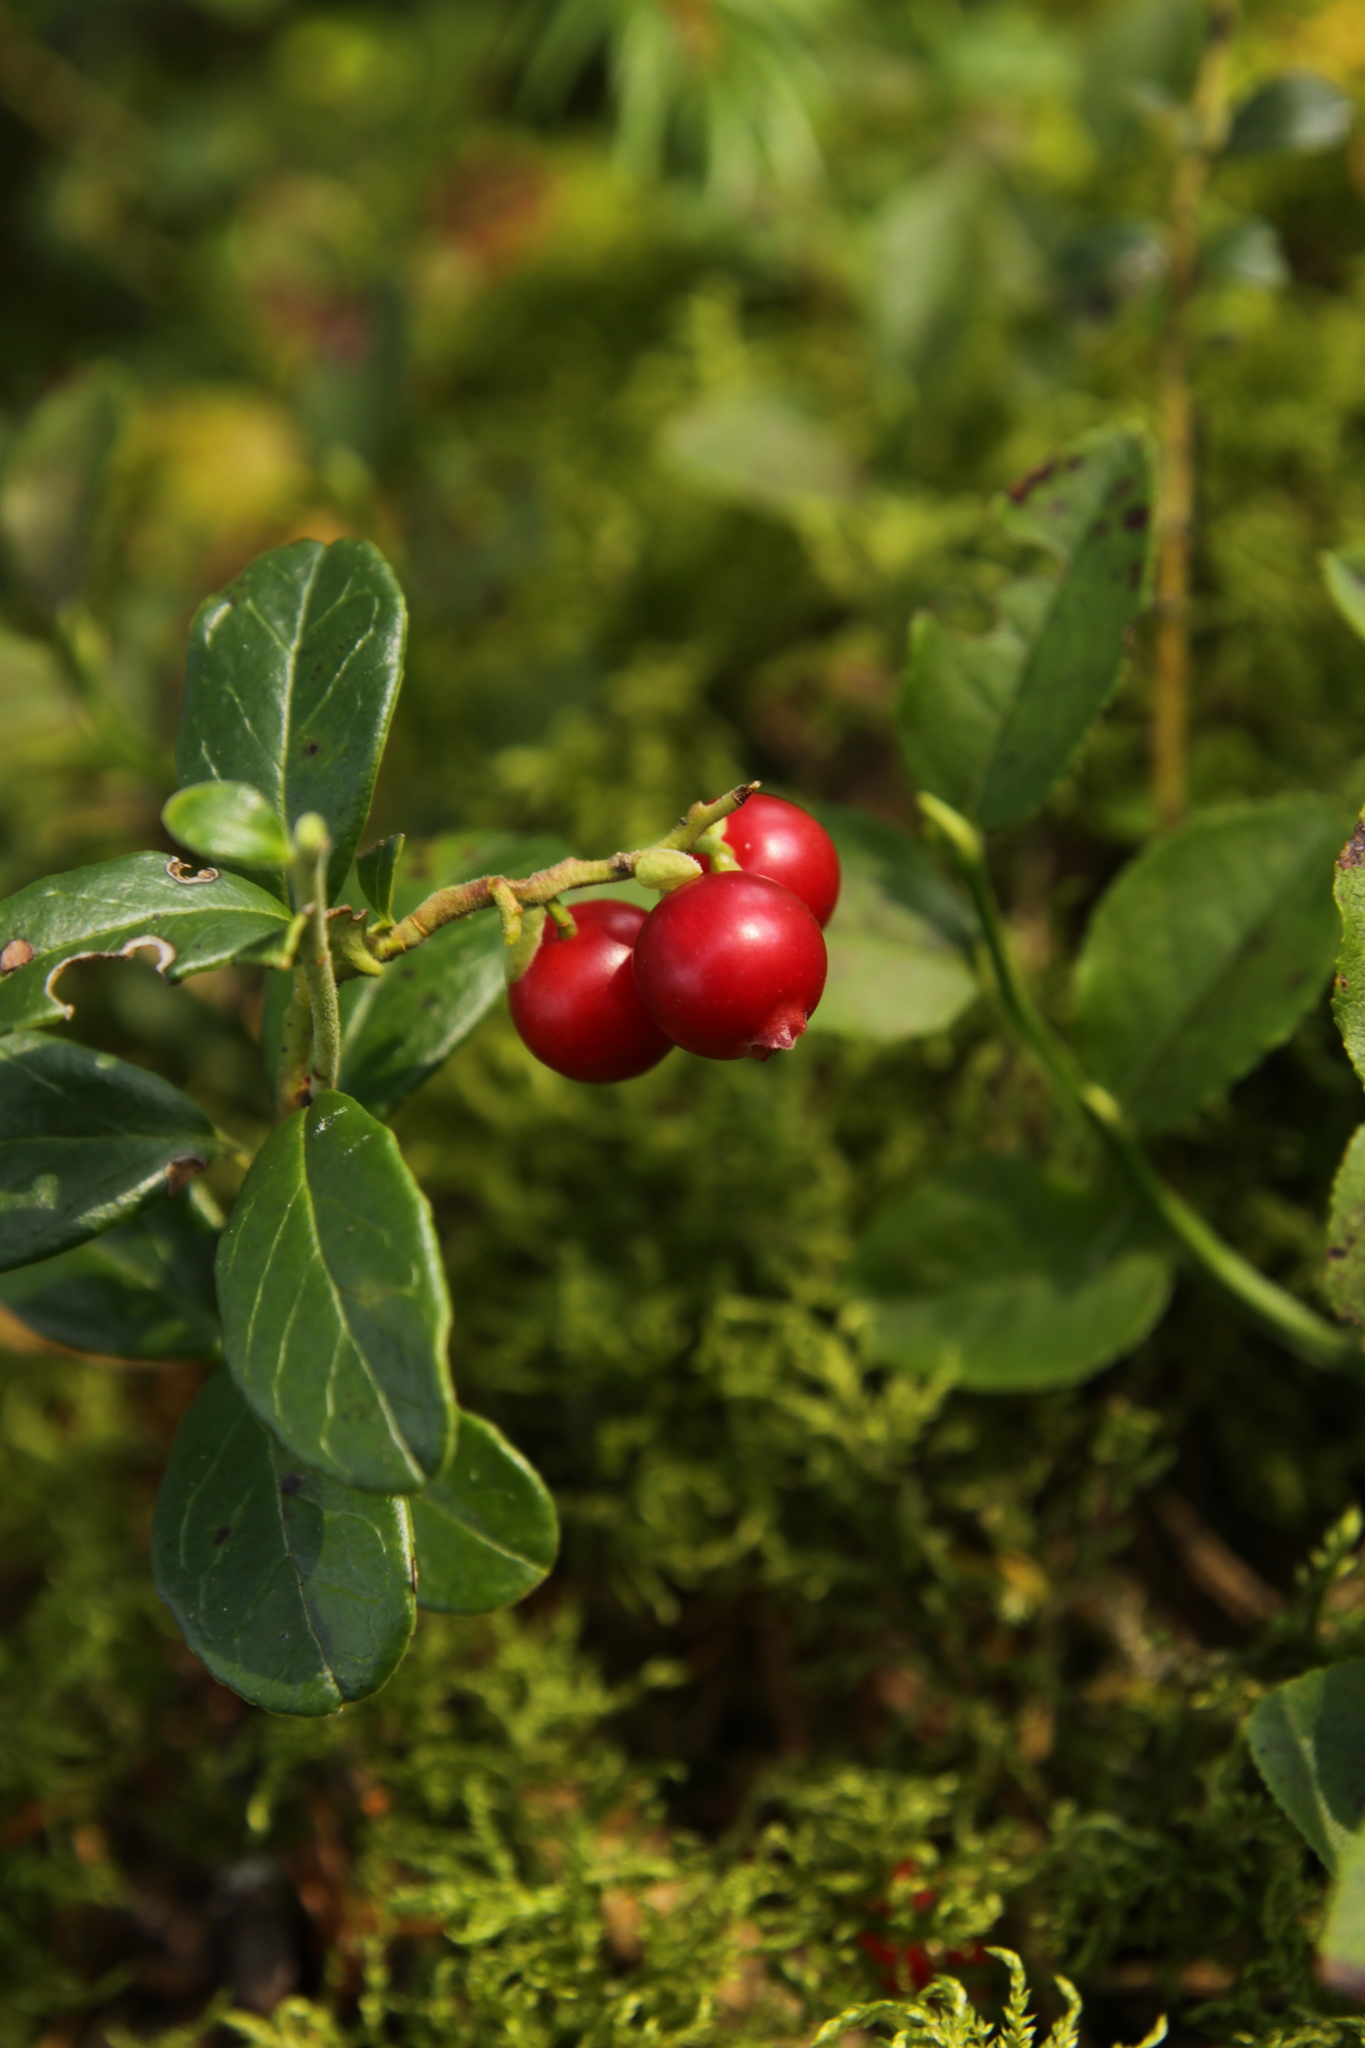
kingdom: Plantae
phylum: Tracheophyta
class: Magnoliopsida
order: Ericales
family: Ericaceae
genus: Vaccinium
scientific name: Vaccinium vitis-idaea
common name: Cowberry
